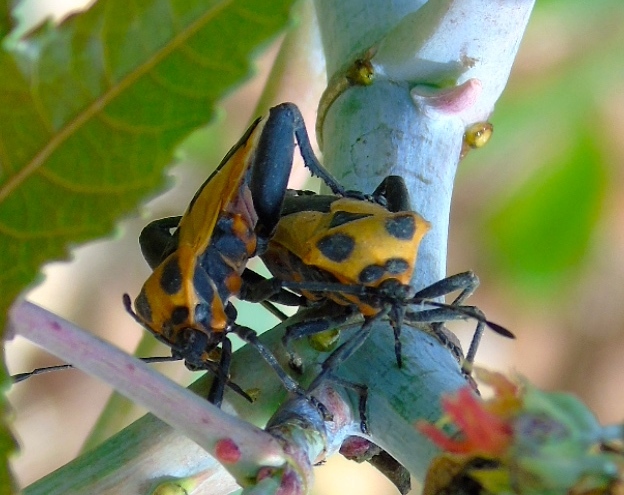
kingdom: Animalia
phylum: Arthropoda
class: Insecta
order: Hemiptera
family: Coreidae
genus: Sagotylus
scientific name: Sagotylus confluens
